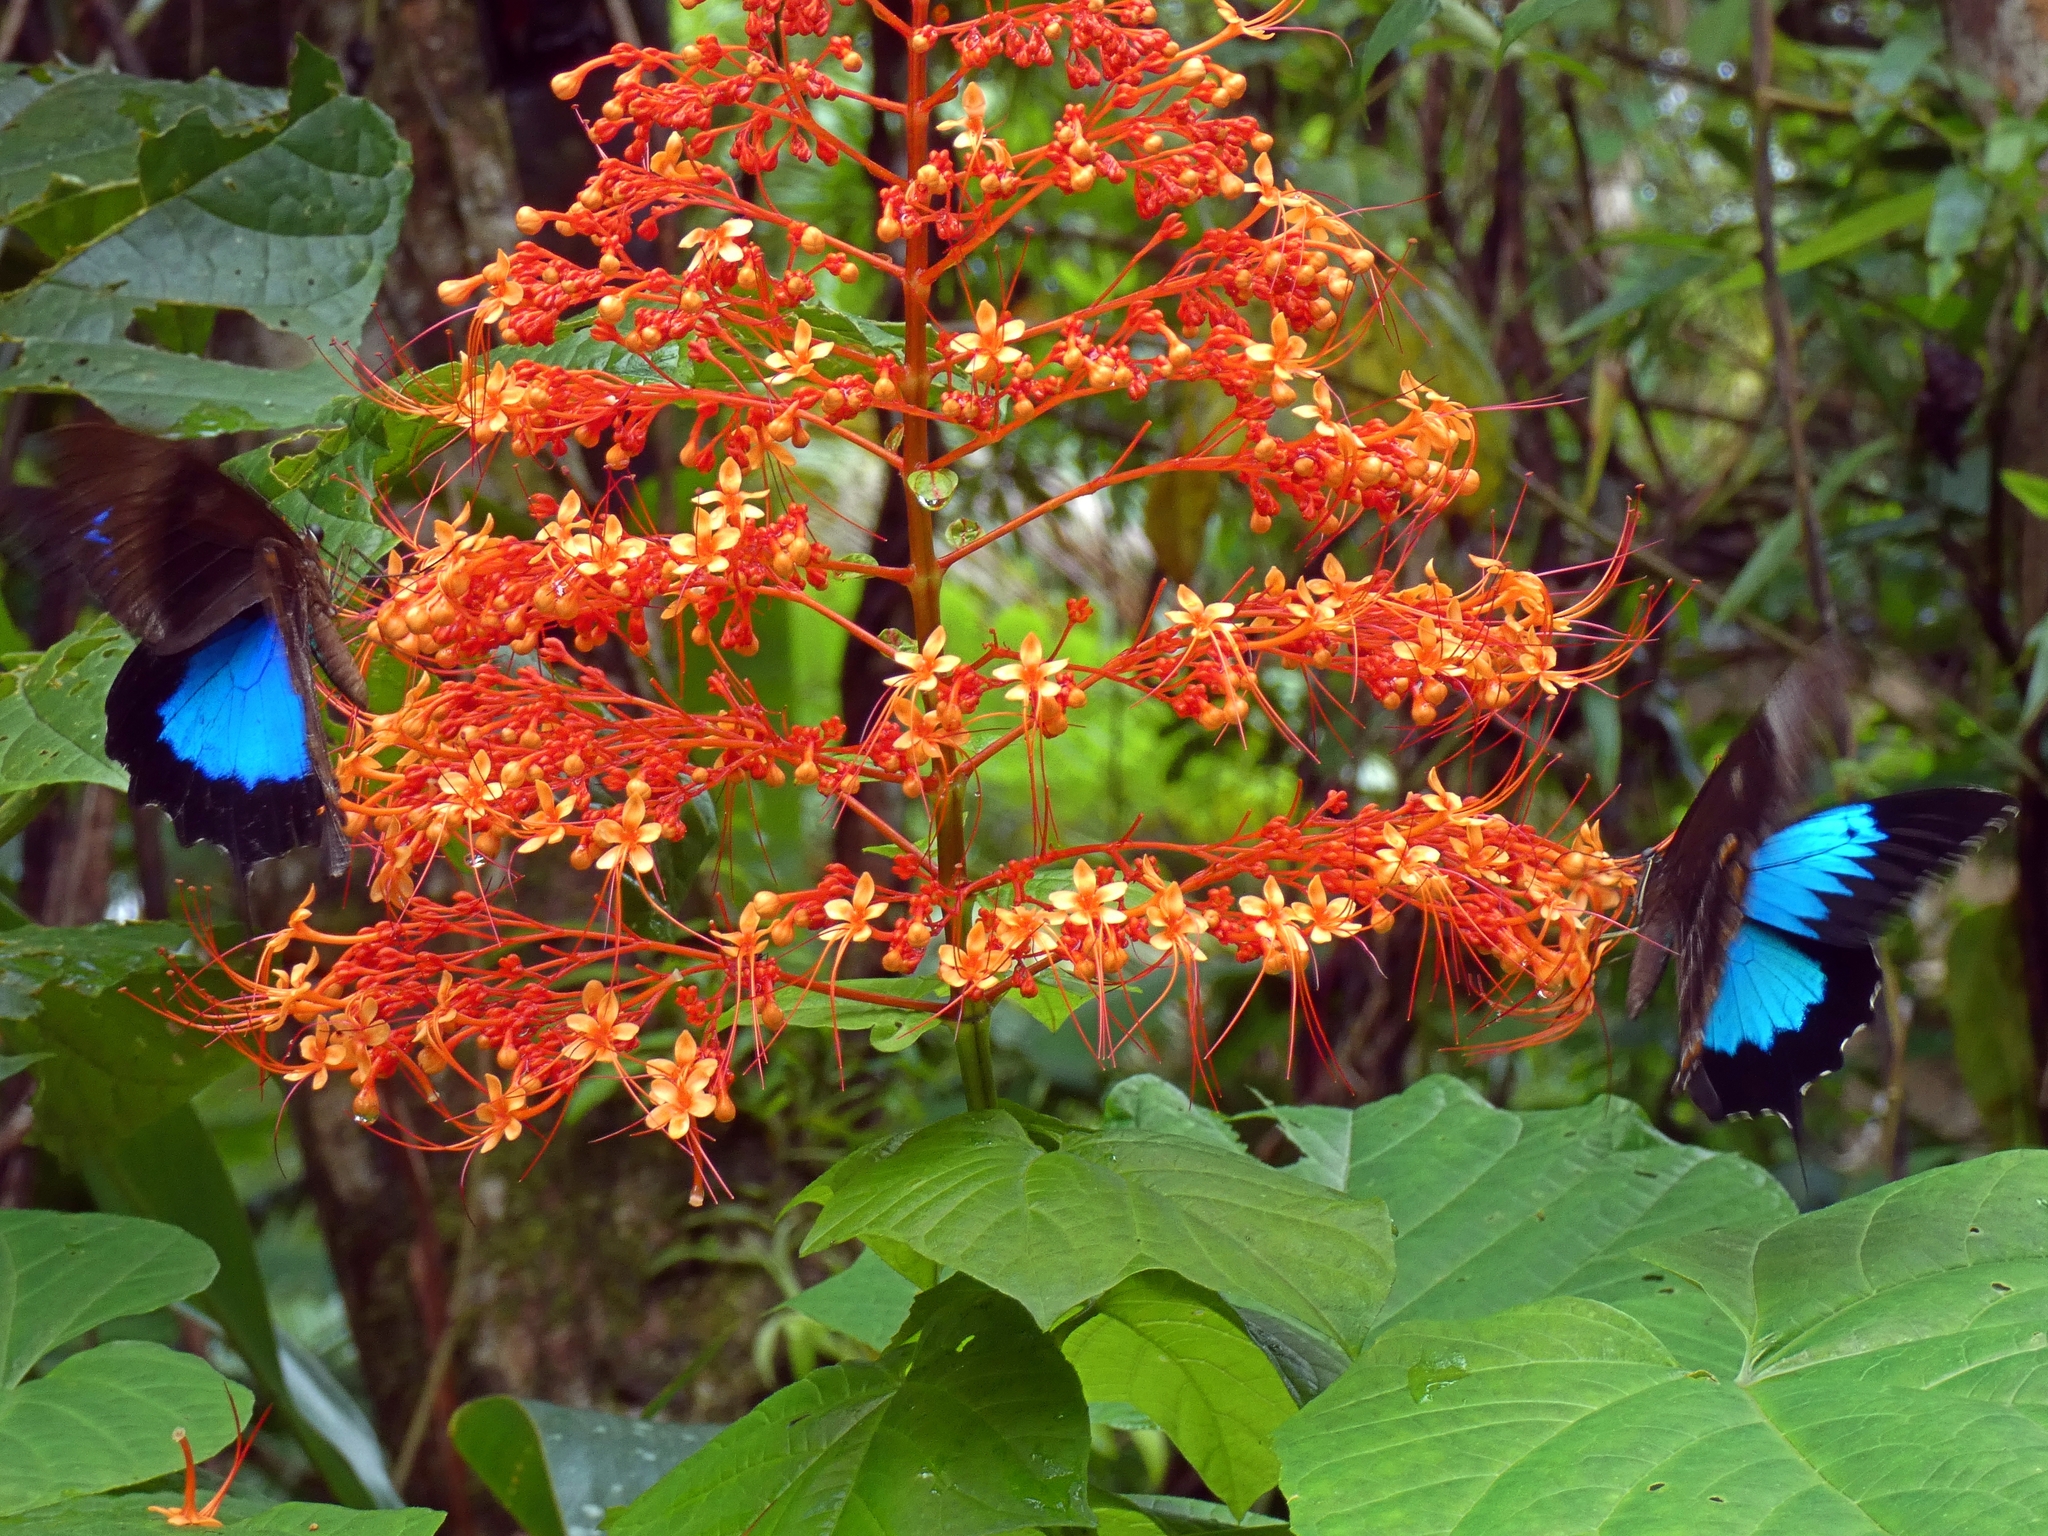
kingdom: Animalia
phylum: Arthropoda
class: Insecta
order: Lepidoptera
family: Papilionidae
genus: Papilio
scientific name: Papilio ulysses
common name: Blue emperor
